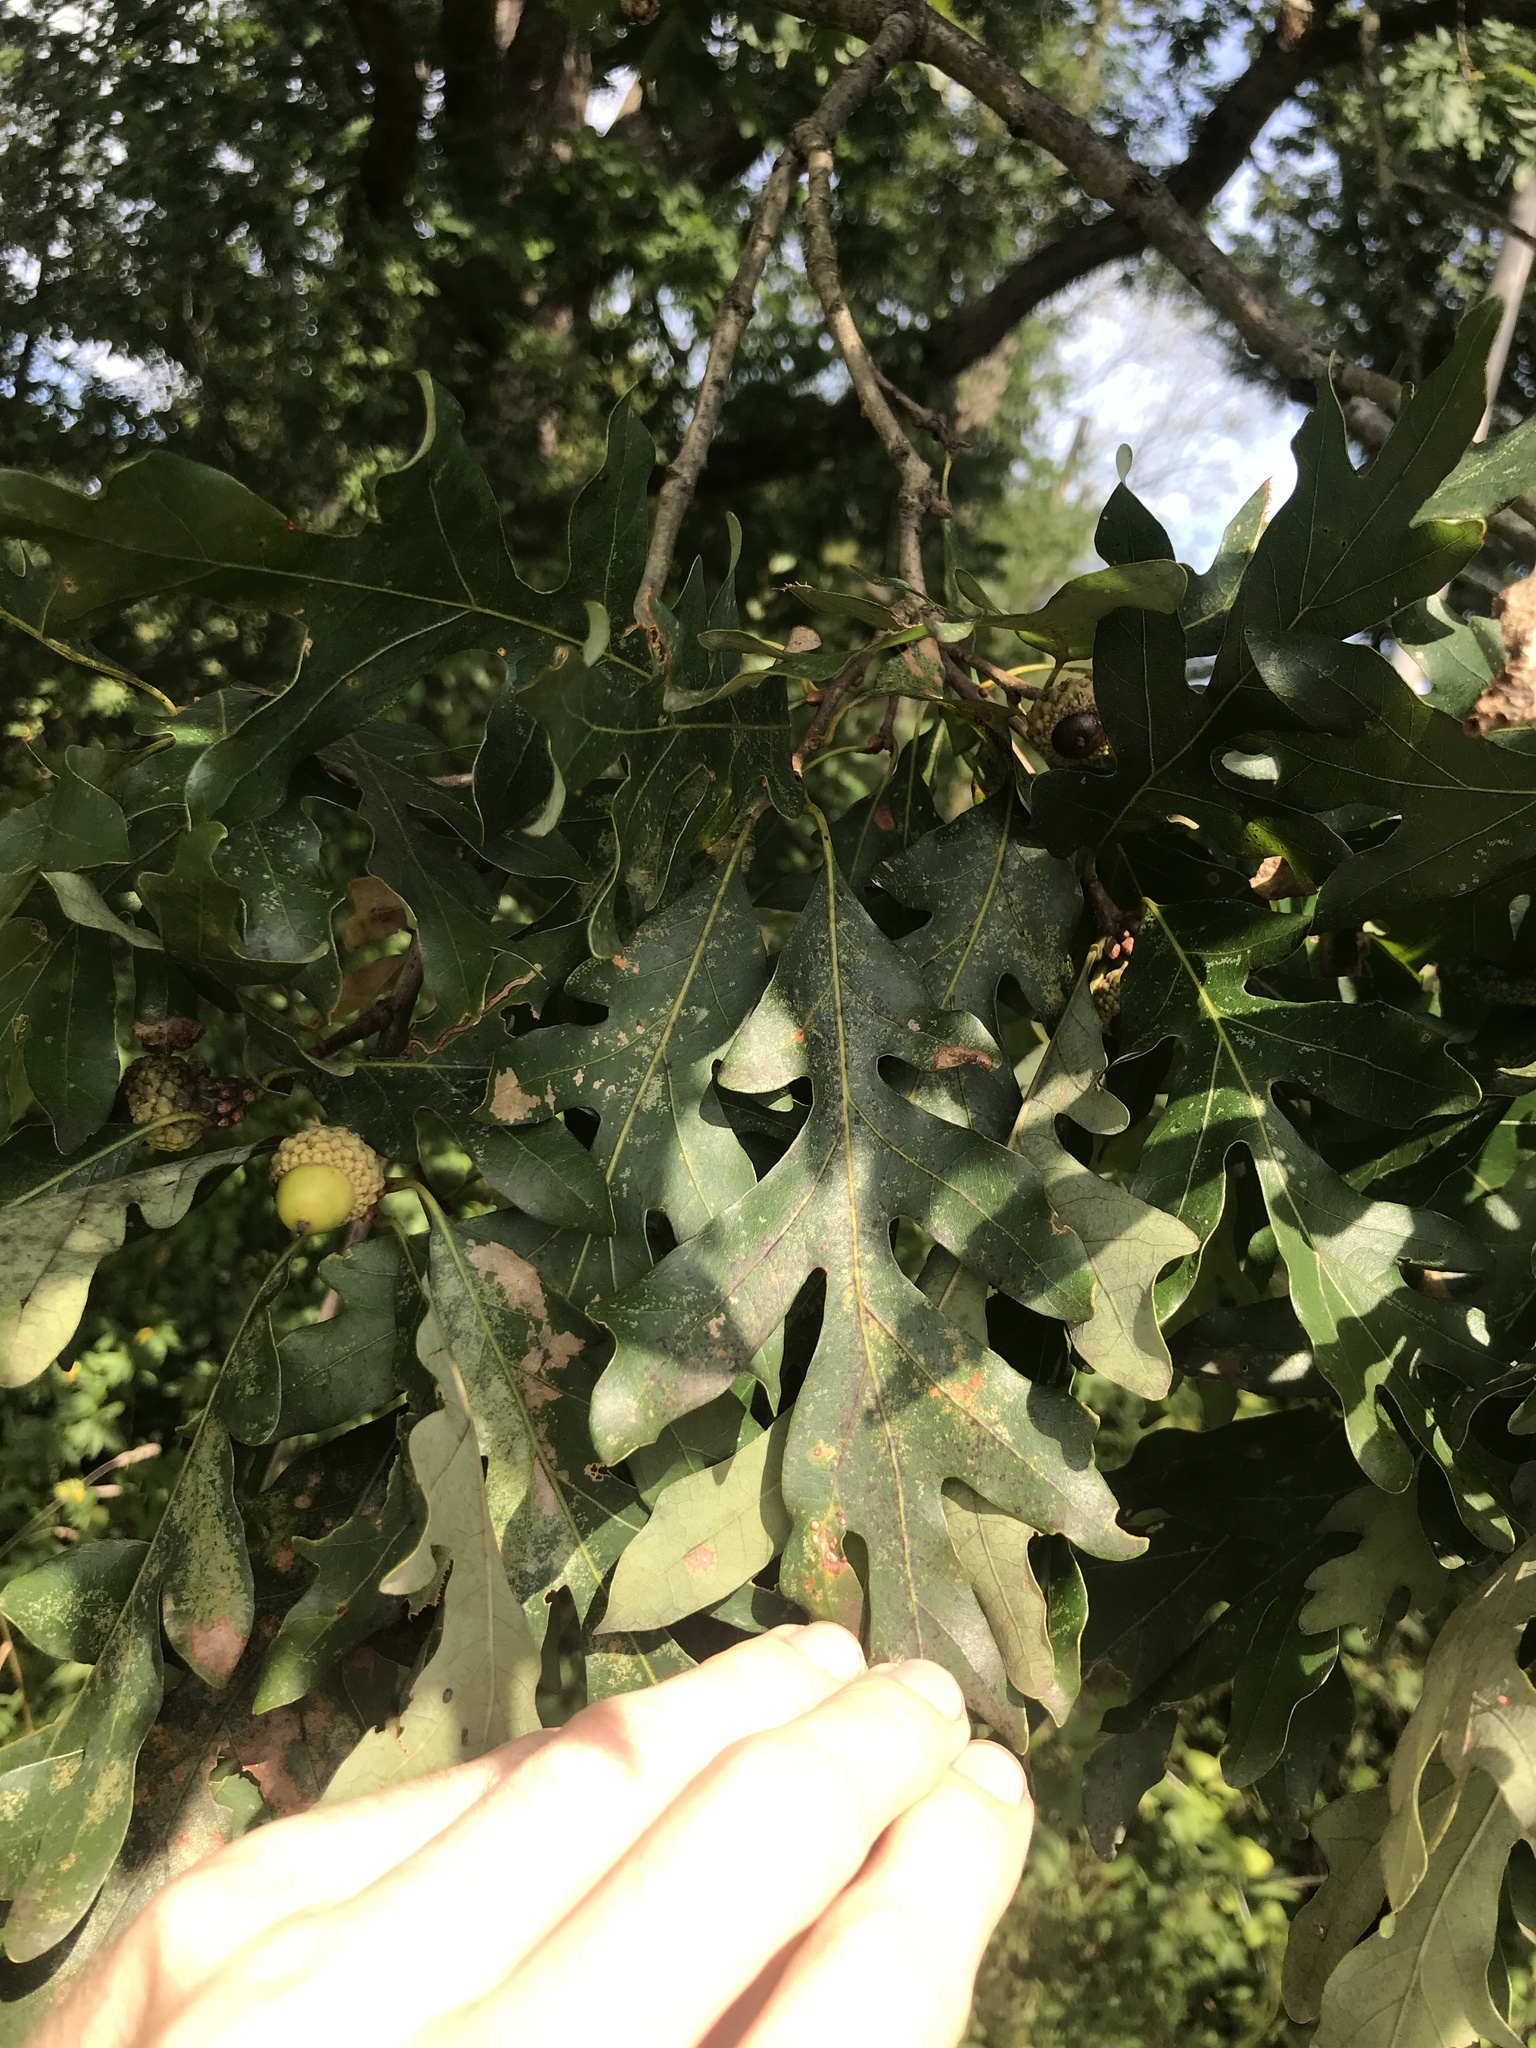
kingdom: Plantae
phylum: Tracheophyta
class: Magnoliopsida
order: Fagales
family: Fagaceae
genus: Quercus
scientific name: Quercus alba
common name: White oak
